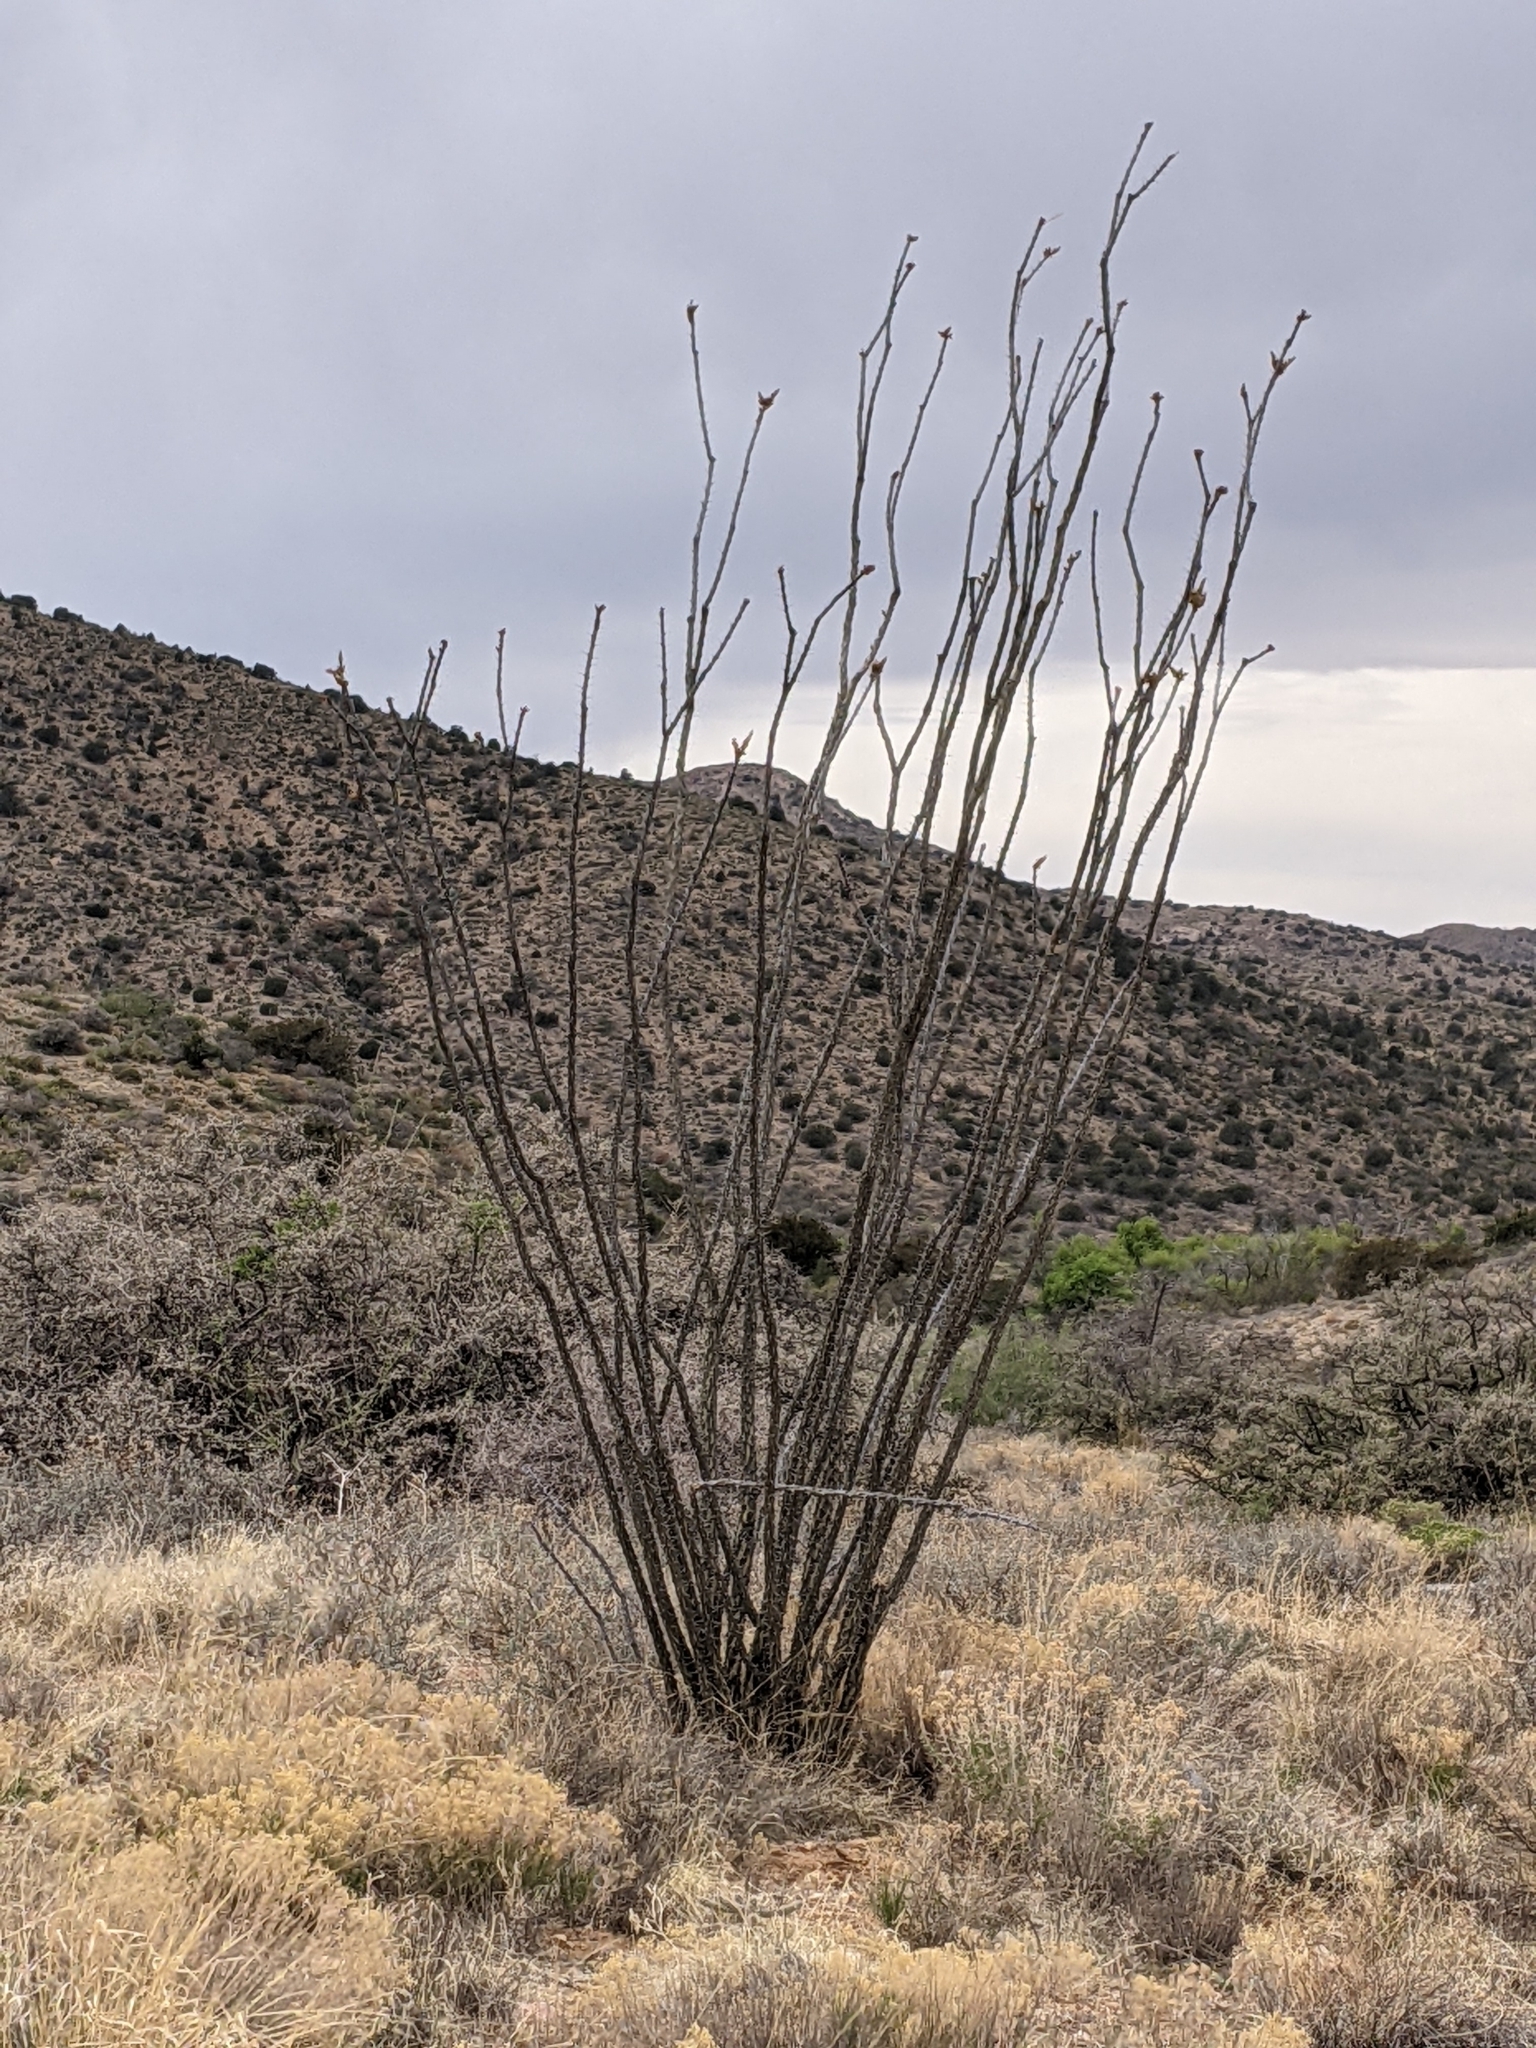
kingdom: Plantae
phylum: Tracheophyta
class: Magnoliopsida
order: Ericales
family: Fouquieriaceae
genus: Fouquieria
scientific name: Fouquieria splendens
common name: Vine-cactus
